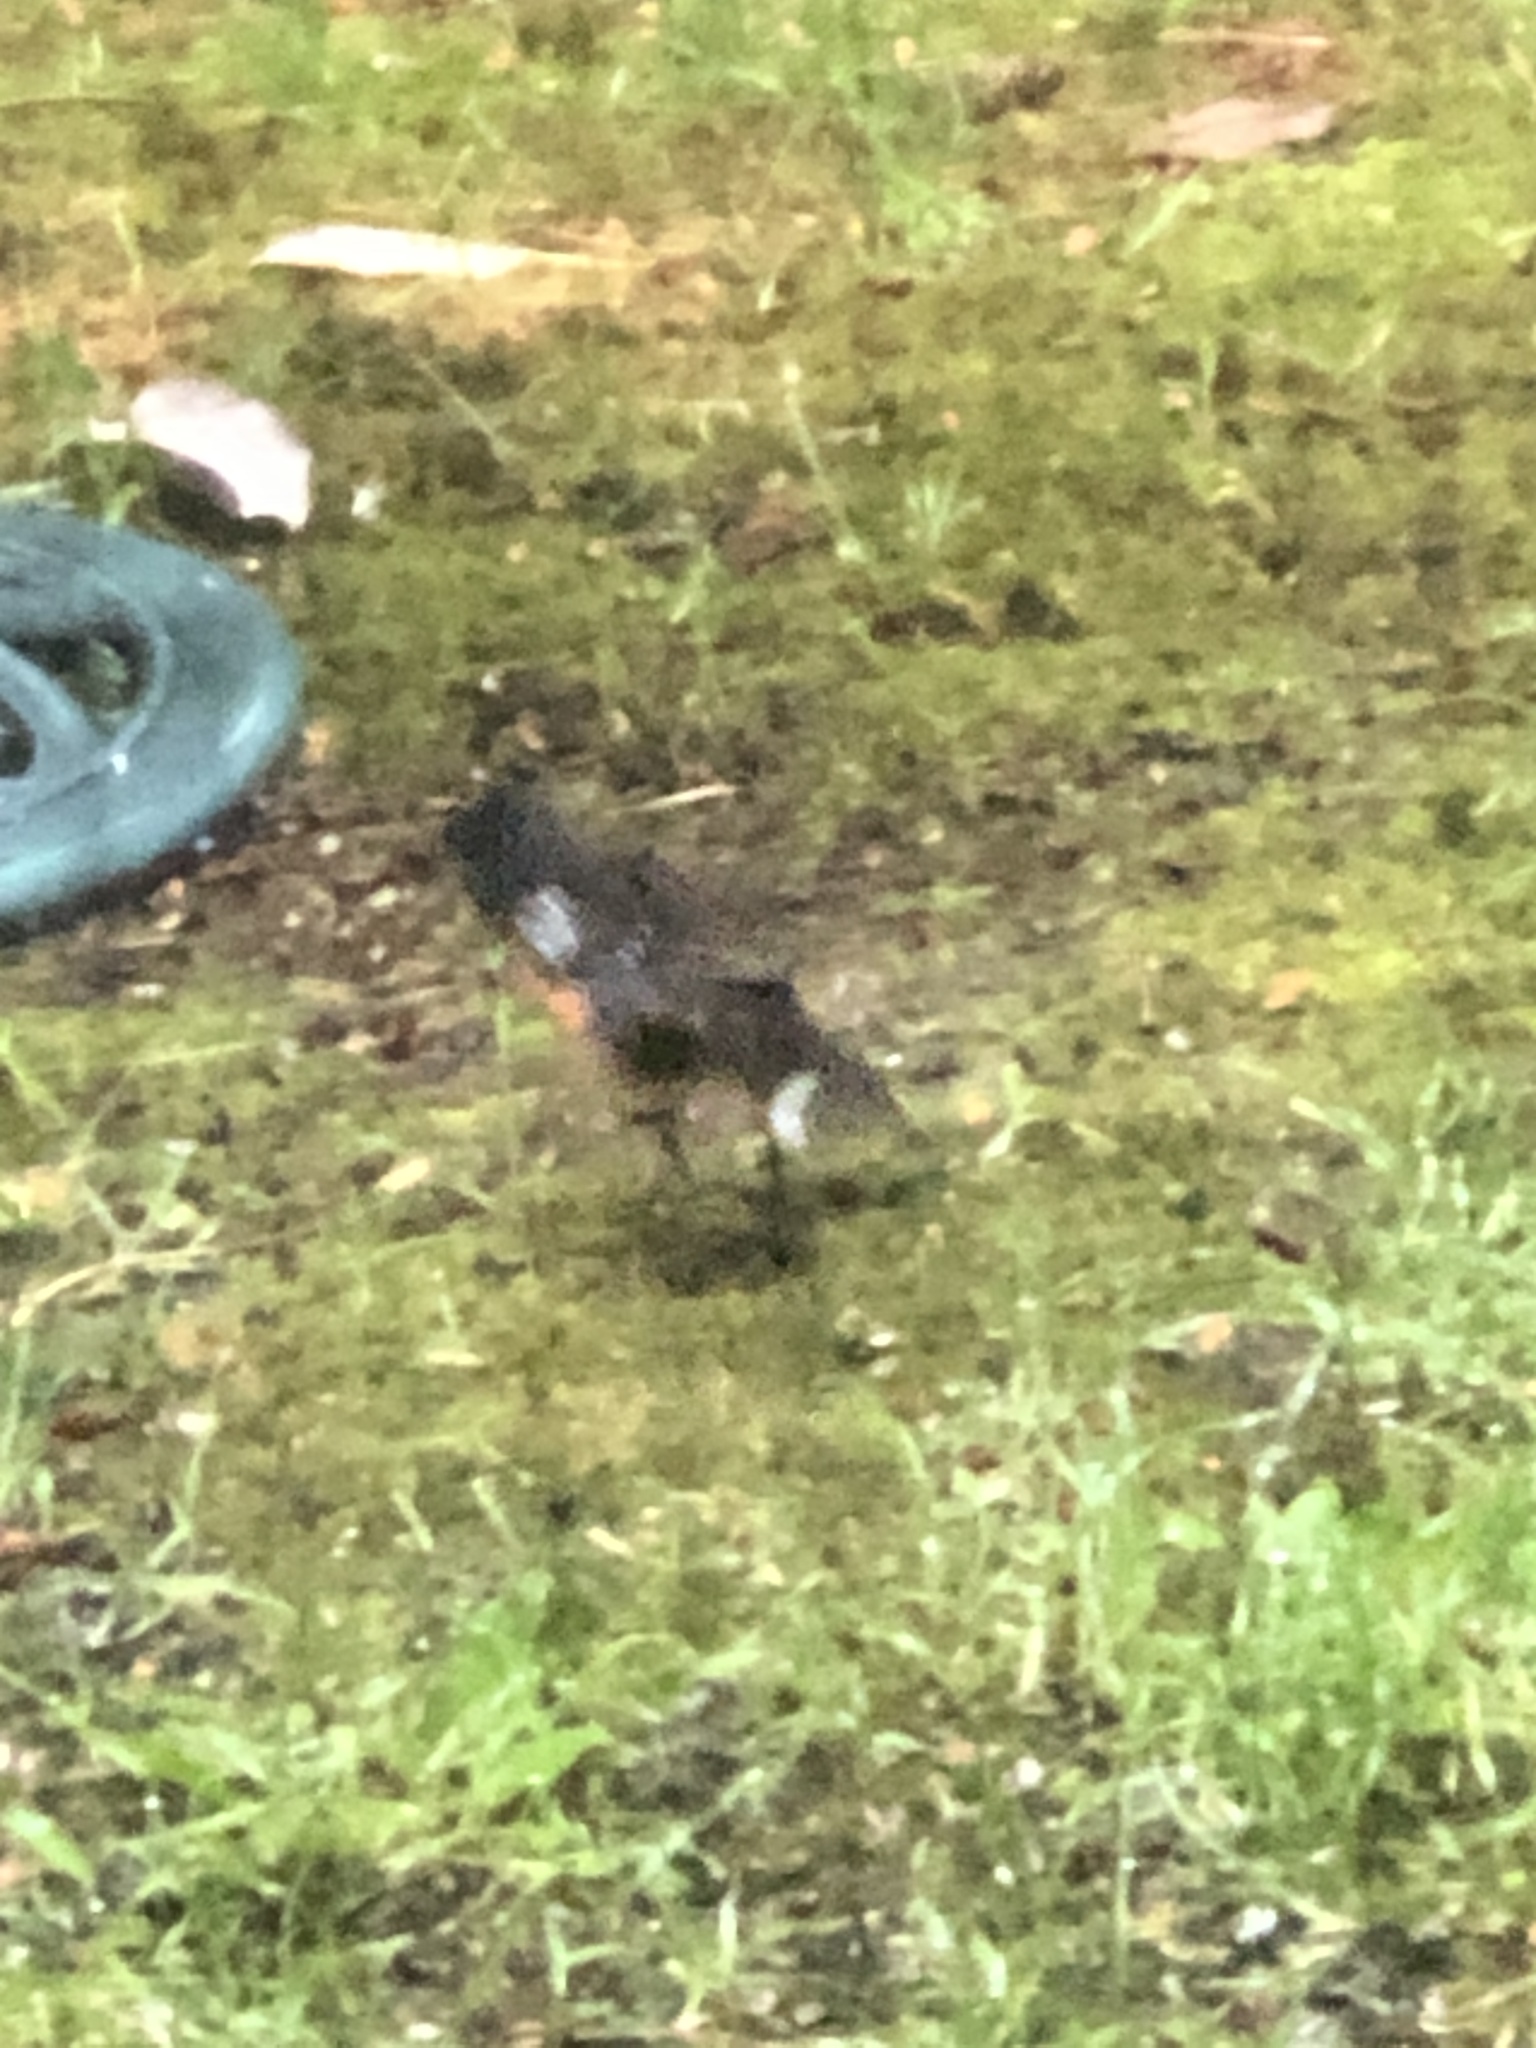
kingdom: Animalia
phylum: Chordata
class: Aves
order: Passeriformes
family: Passerellidae
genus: Pipilo
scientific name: Pipilo maculatus
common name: Spotted towhee
